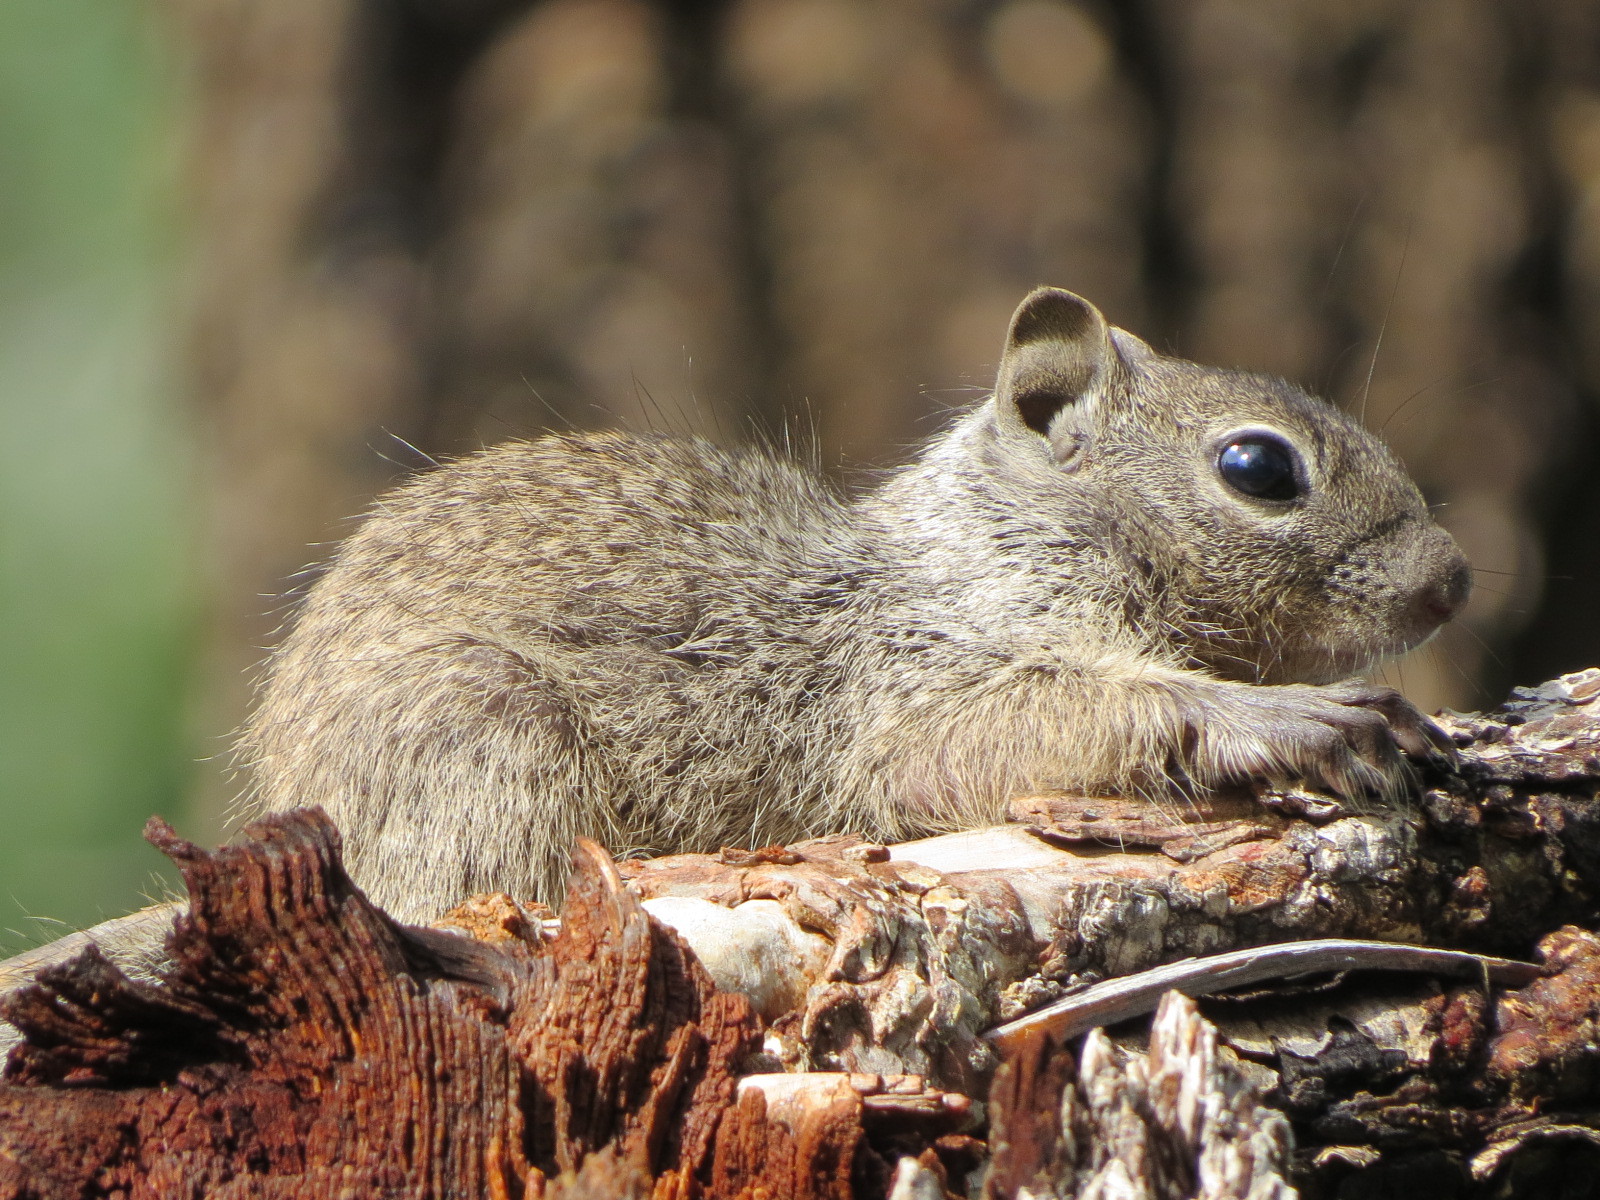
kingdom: Animalia
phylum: Chordata
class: Mammalia
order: Rodentia
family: Sciuridae
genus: Otospermophilus
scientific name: Otospermophilus variegatus
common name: Rock squirrel
